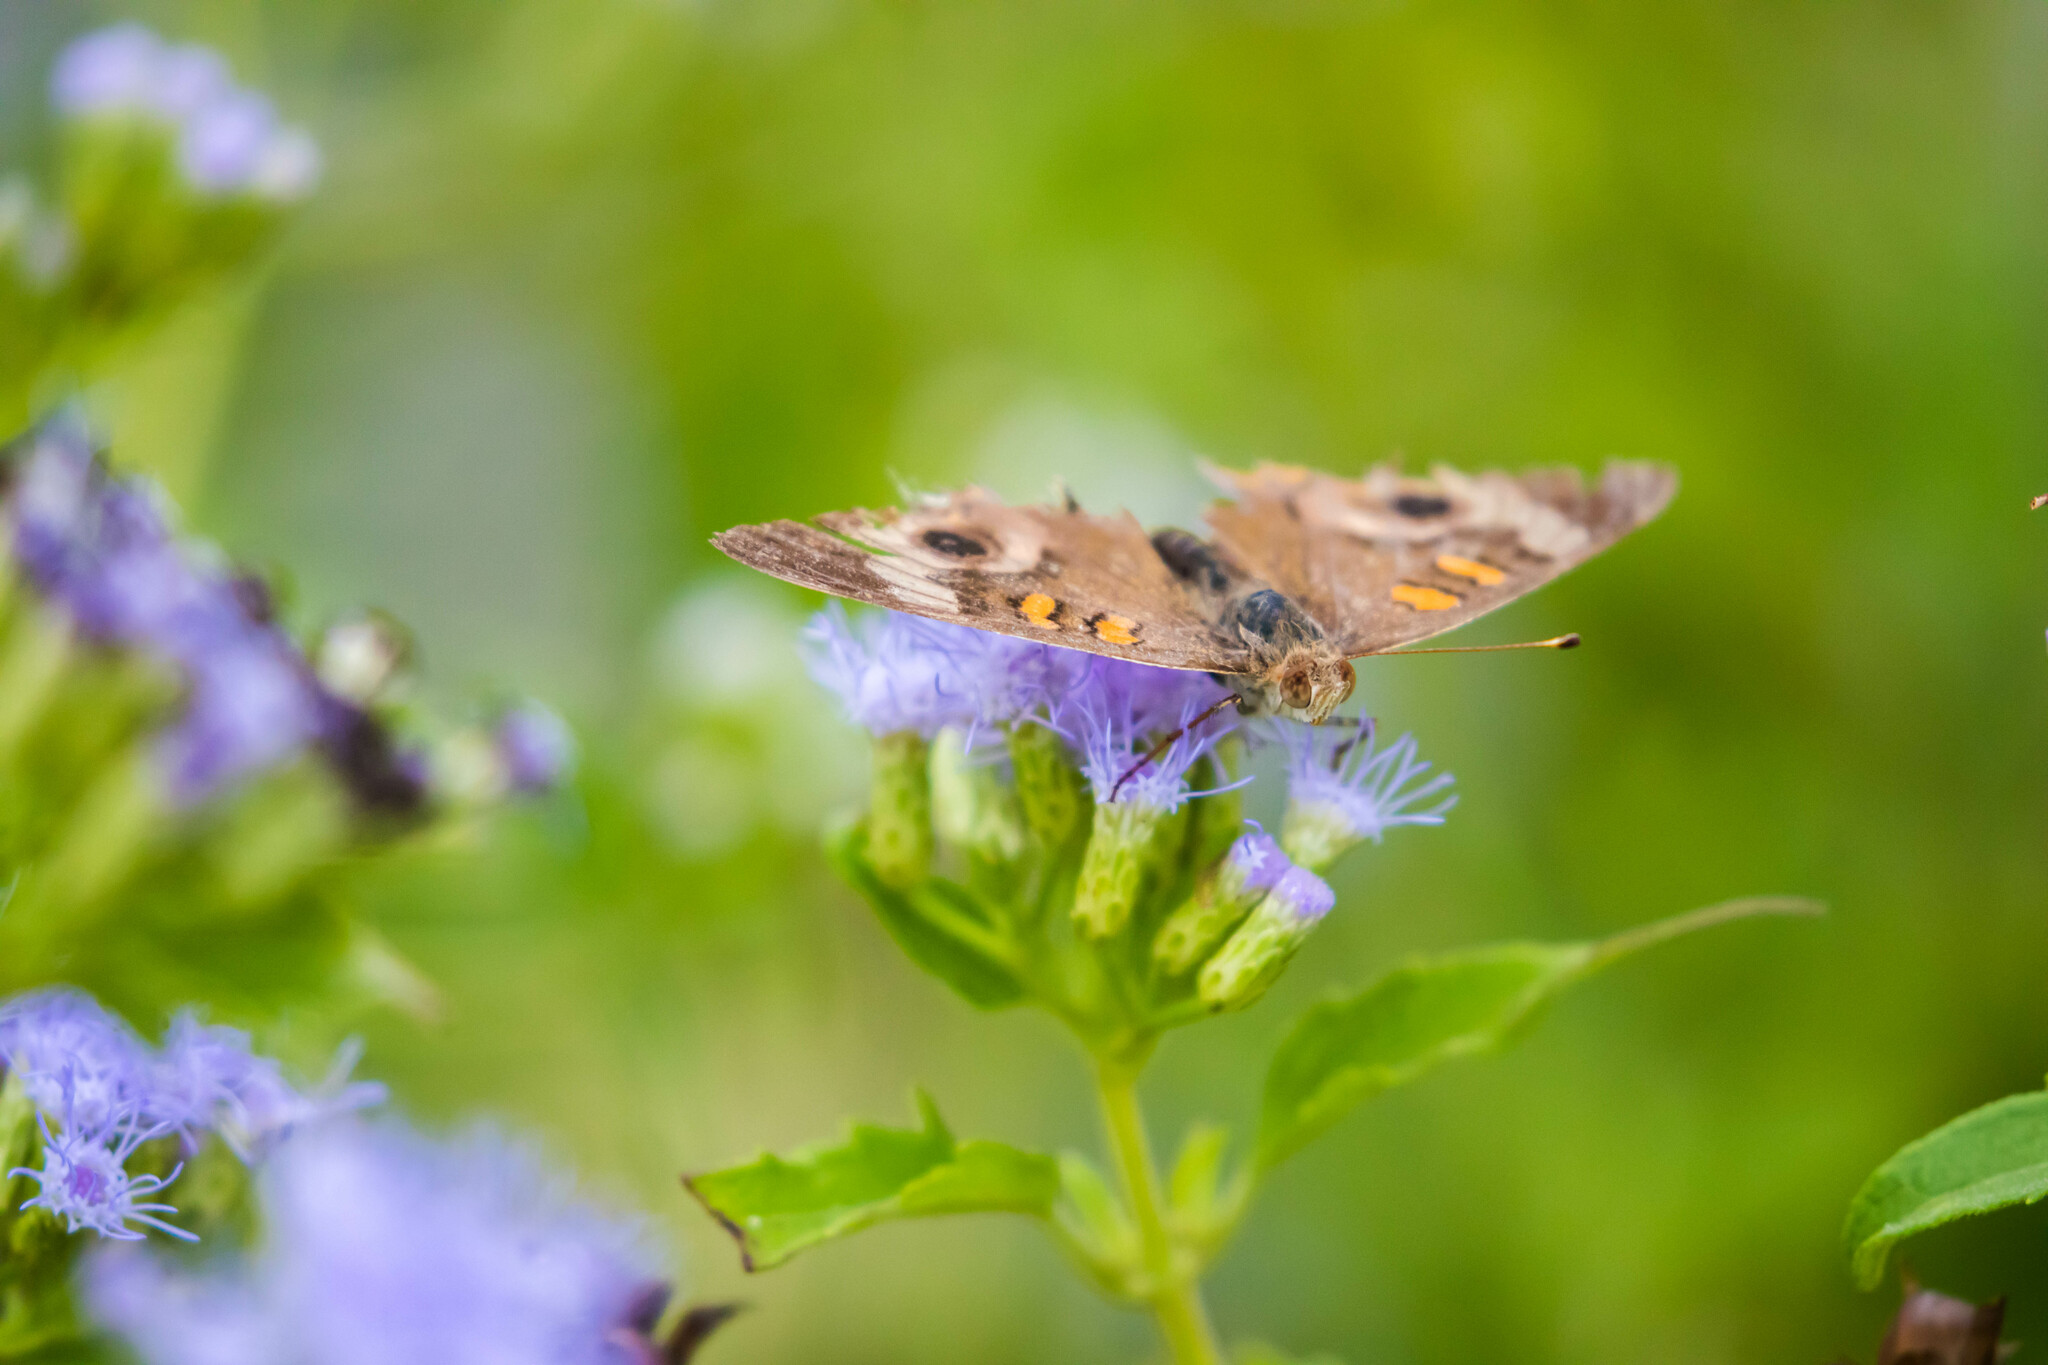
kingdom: Animalia
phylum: Arthropoda
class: Insecta
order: Lepidoptera
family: Nymphalidae
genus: Junonia
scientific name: Junonia coenia
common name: Common buckeye
